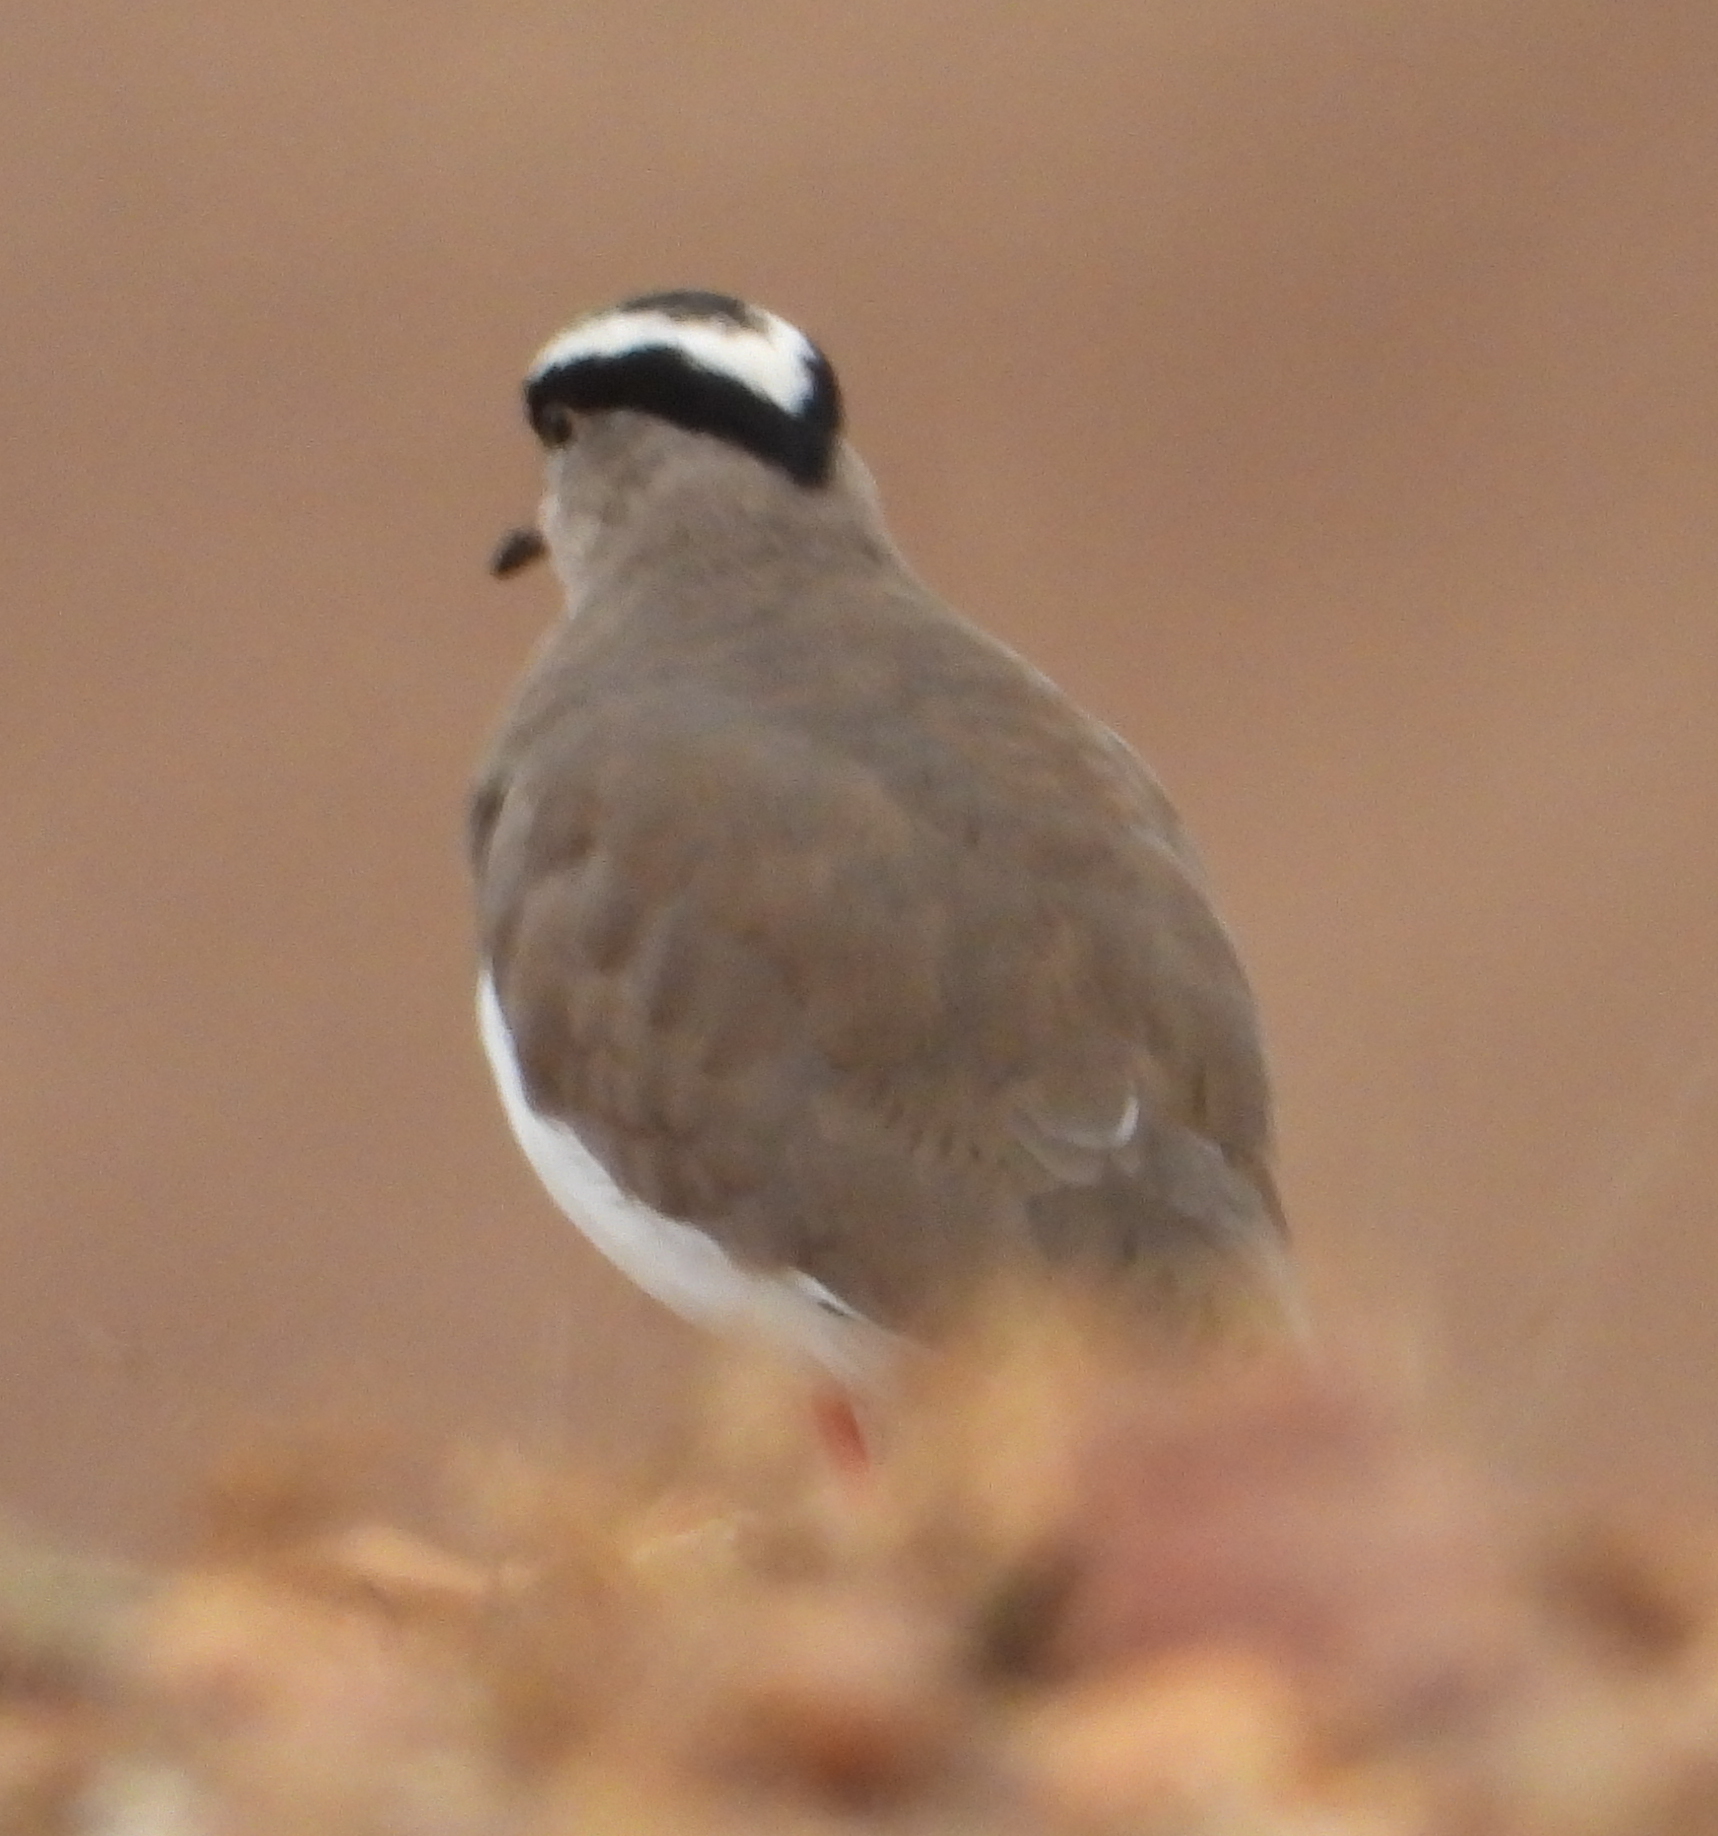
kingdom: Animalia
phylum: Chordata
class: Aves
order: Charadriiformes
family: Charadriidae
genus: Vanellus
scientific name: Vanellus coronatus
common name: Crowned lapwing
